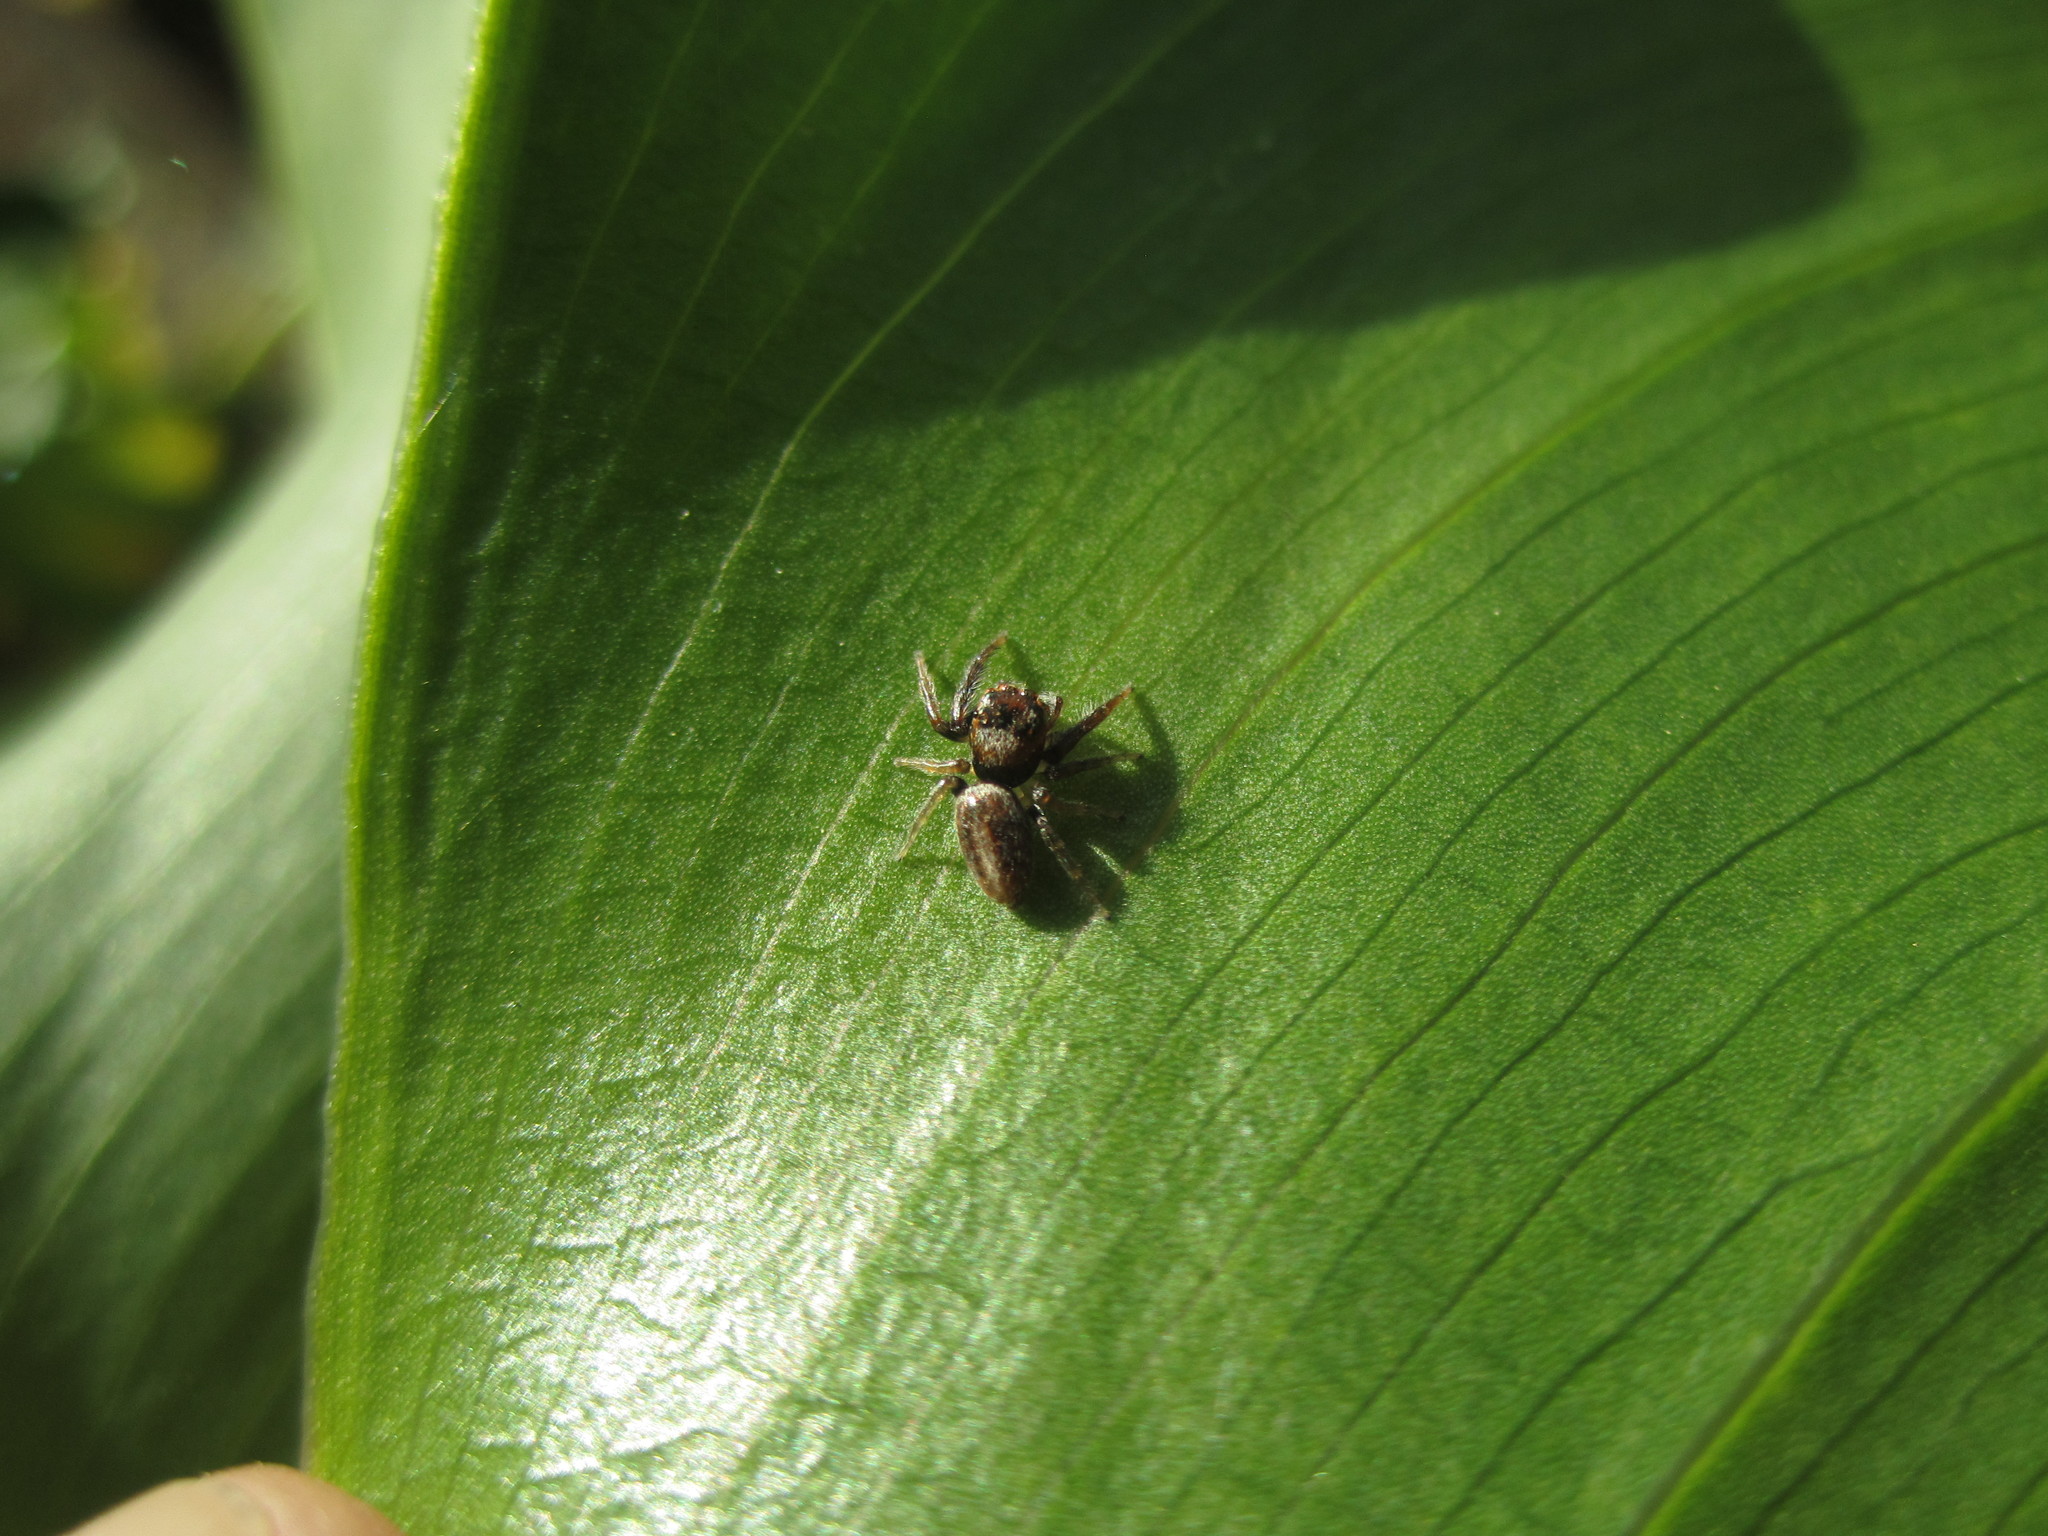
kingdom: Animalia
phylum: Arthropoda
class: Arachnida
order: Araneae
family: Salticidae
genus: Opisthoncus
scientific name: Opisthoncus polyphemus
